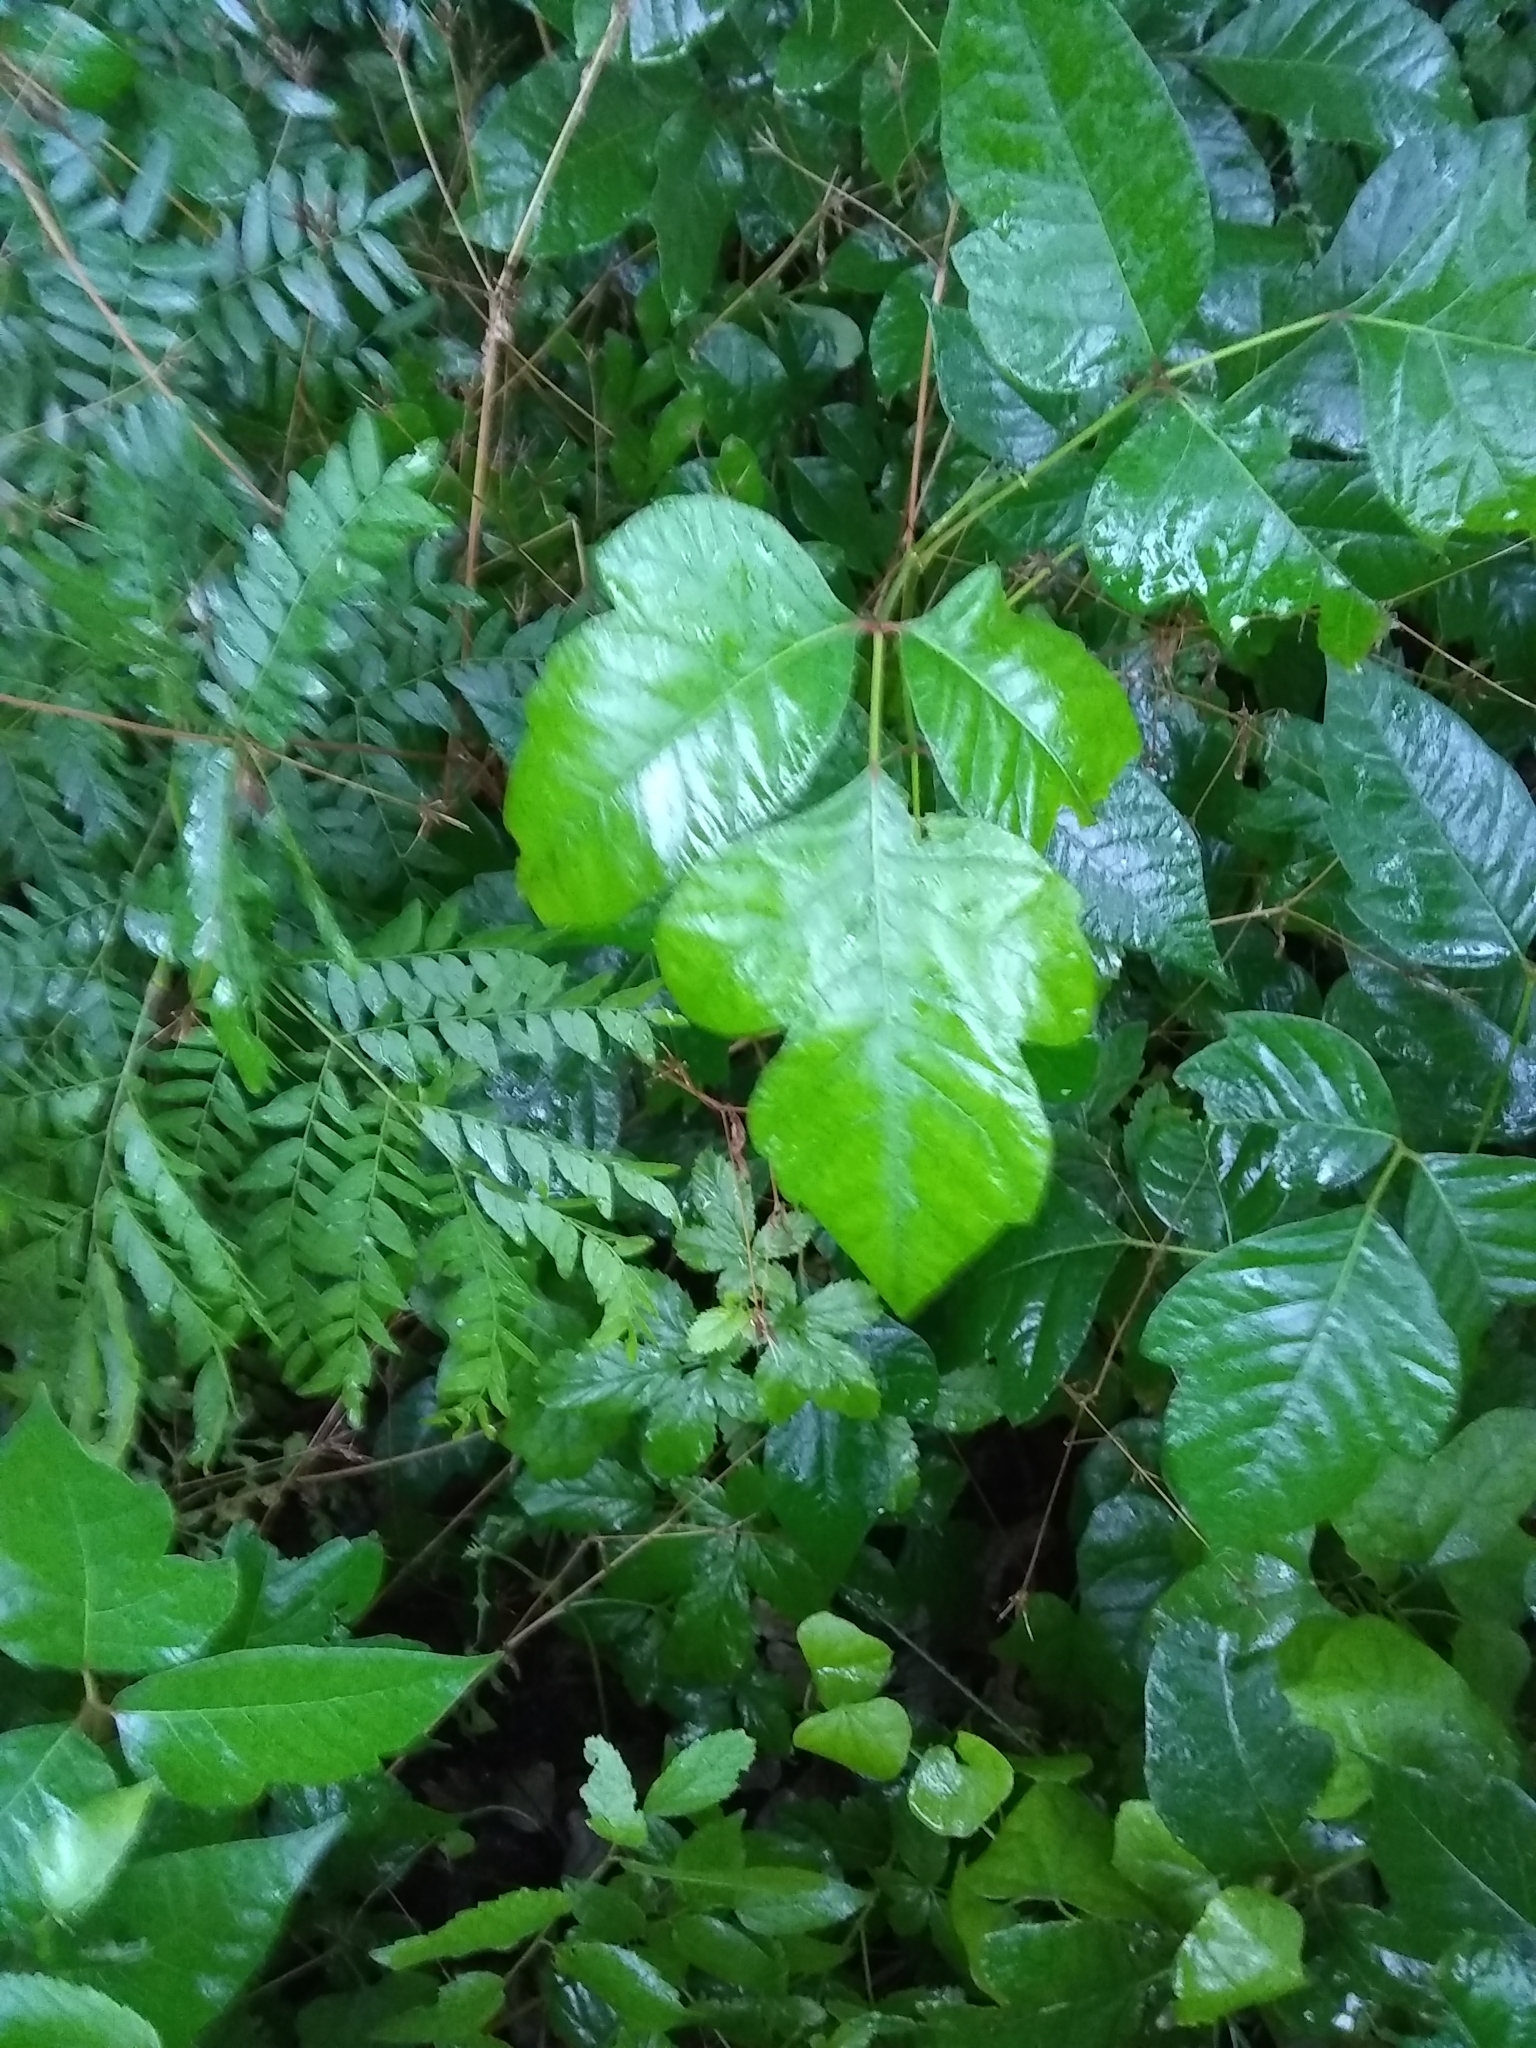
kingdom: Plantae
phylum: Tracheophyta
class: Magnoliopsida
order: Sapindales
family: Anacardiaceae
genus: Toxicodendron
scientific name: Toxicodendron radicans
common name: Poison ivy
